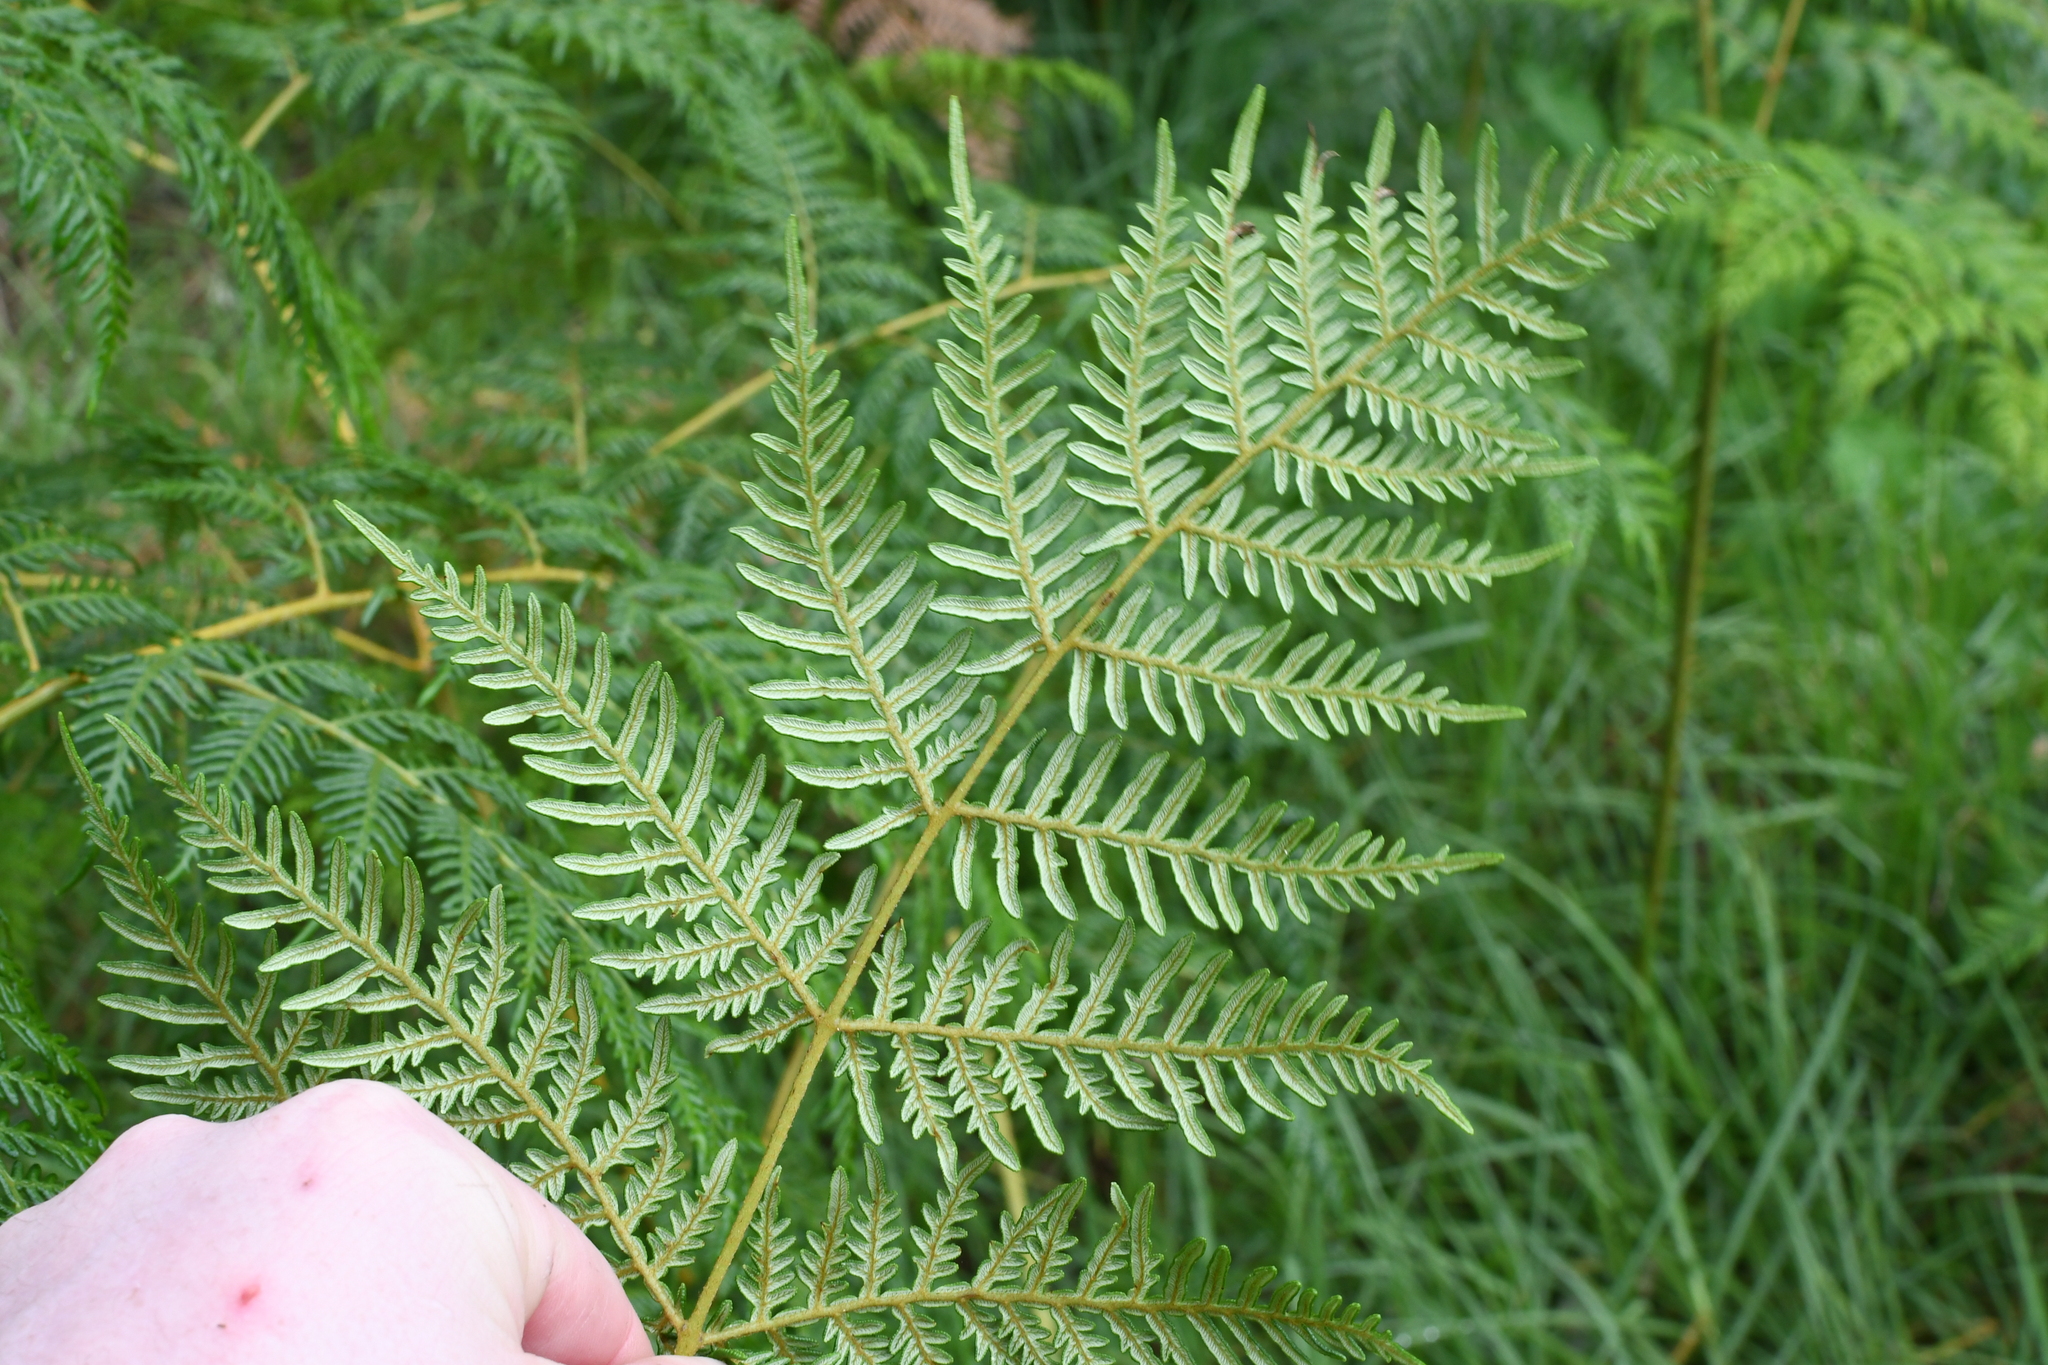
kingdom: Plantae
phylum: Tracheophyta
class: Polypodiopsida
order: Polypodiales
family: Dennstaedtiaceae
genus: Pteridium
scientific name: Pteridium esculentum
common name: Bracken fern
